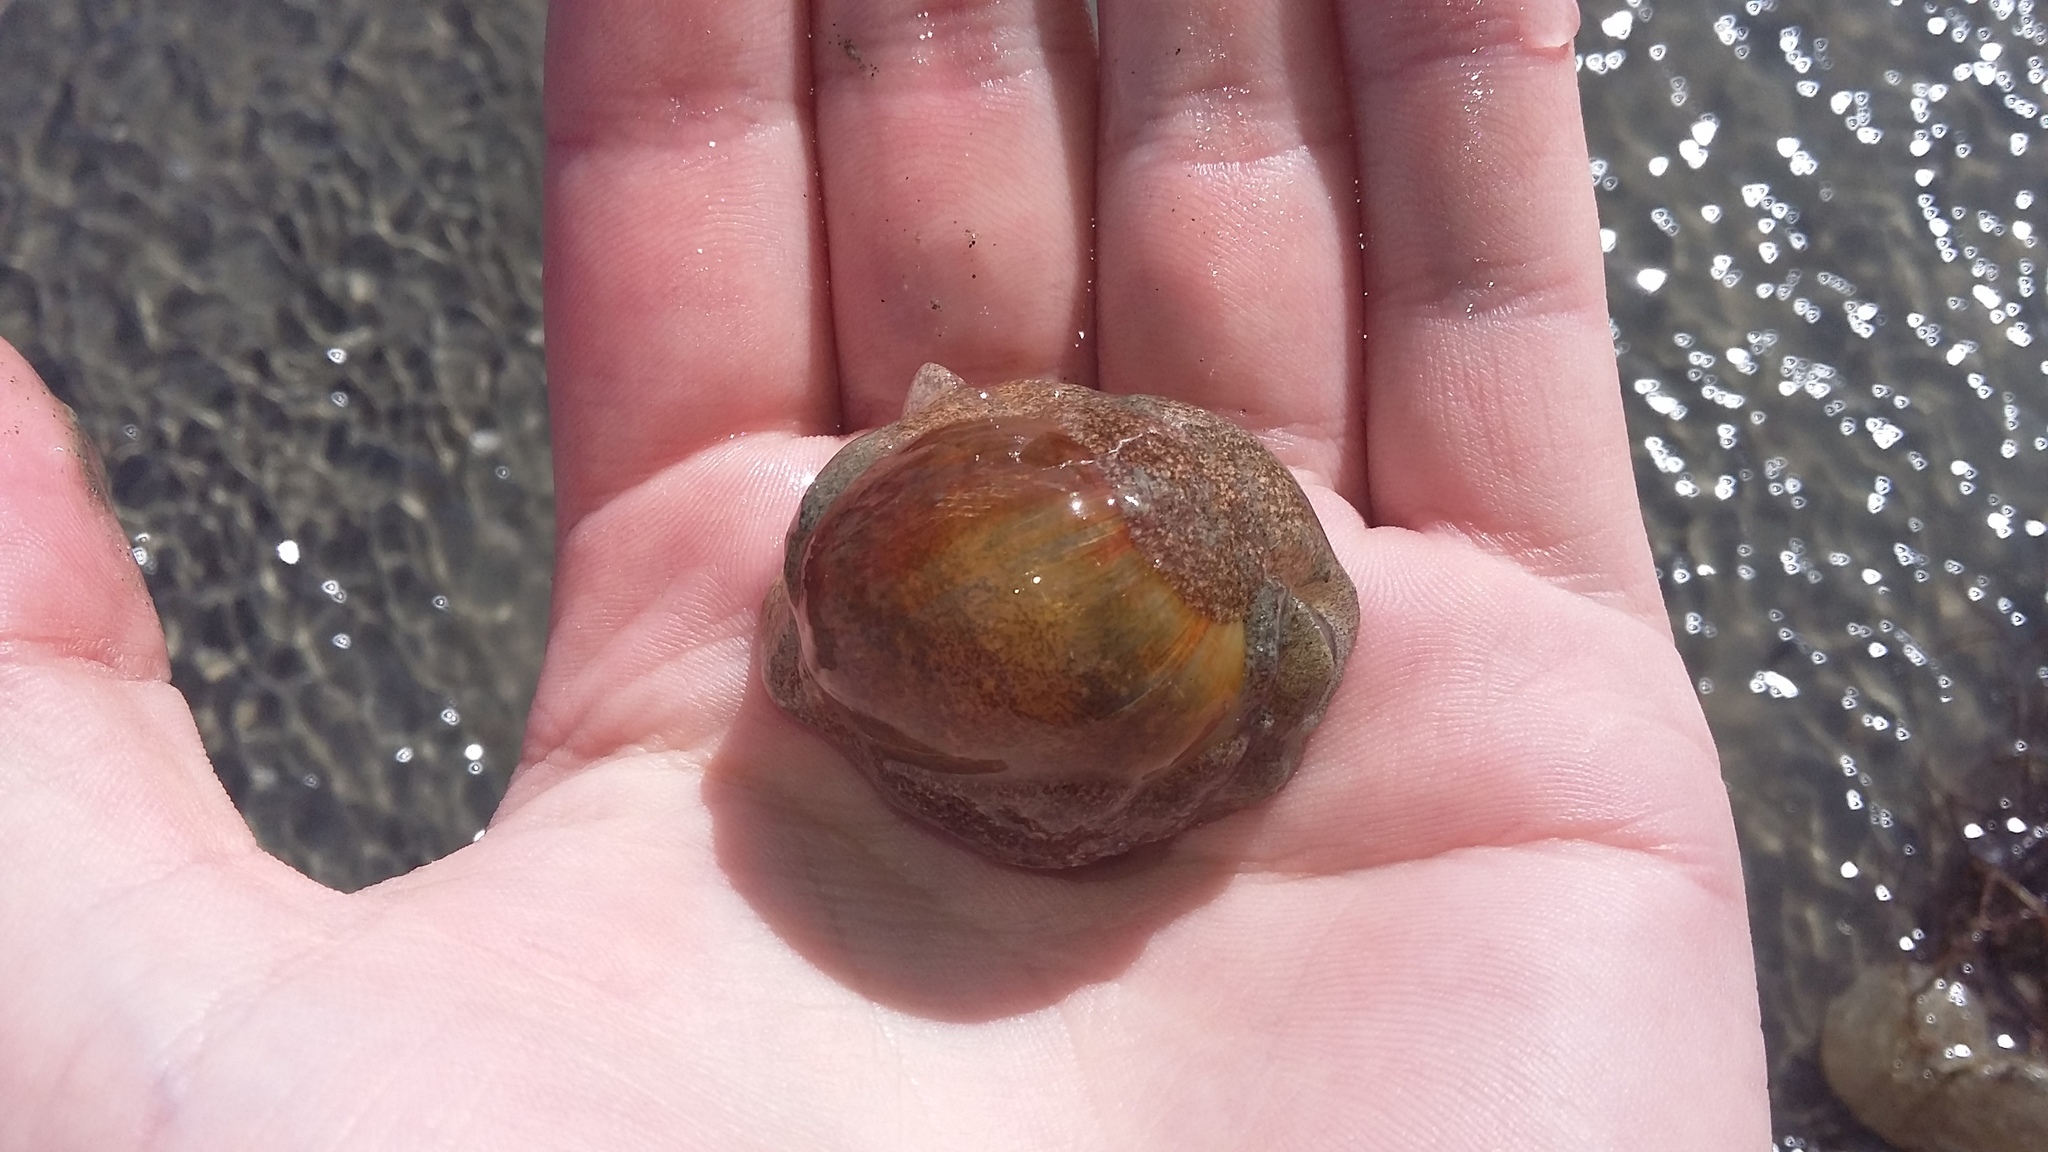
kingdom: Animalia
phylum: Mollusca
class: Gastropoda
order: Cephalaspidea
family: Haminoeidae
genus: Papawera
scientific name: Papawera zelandiae
